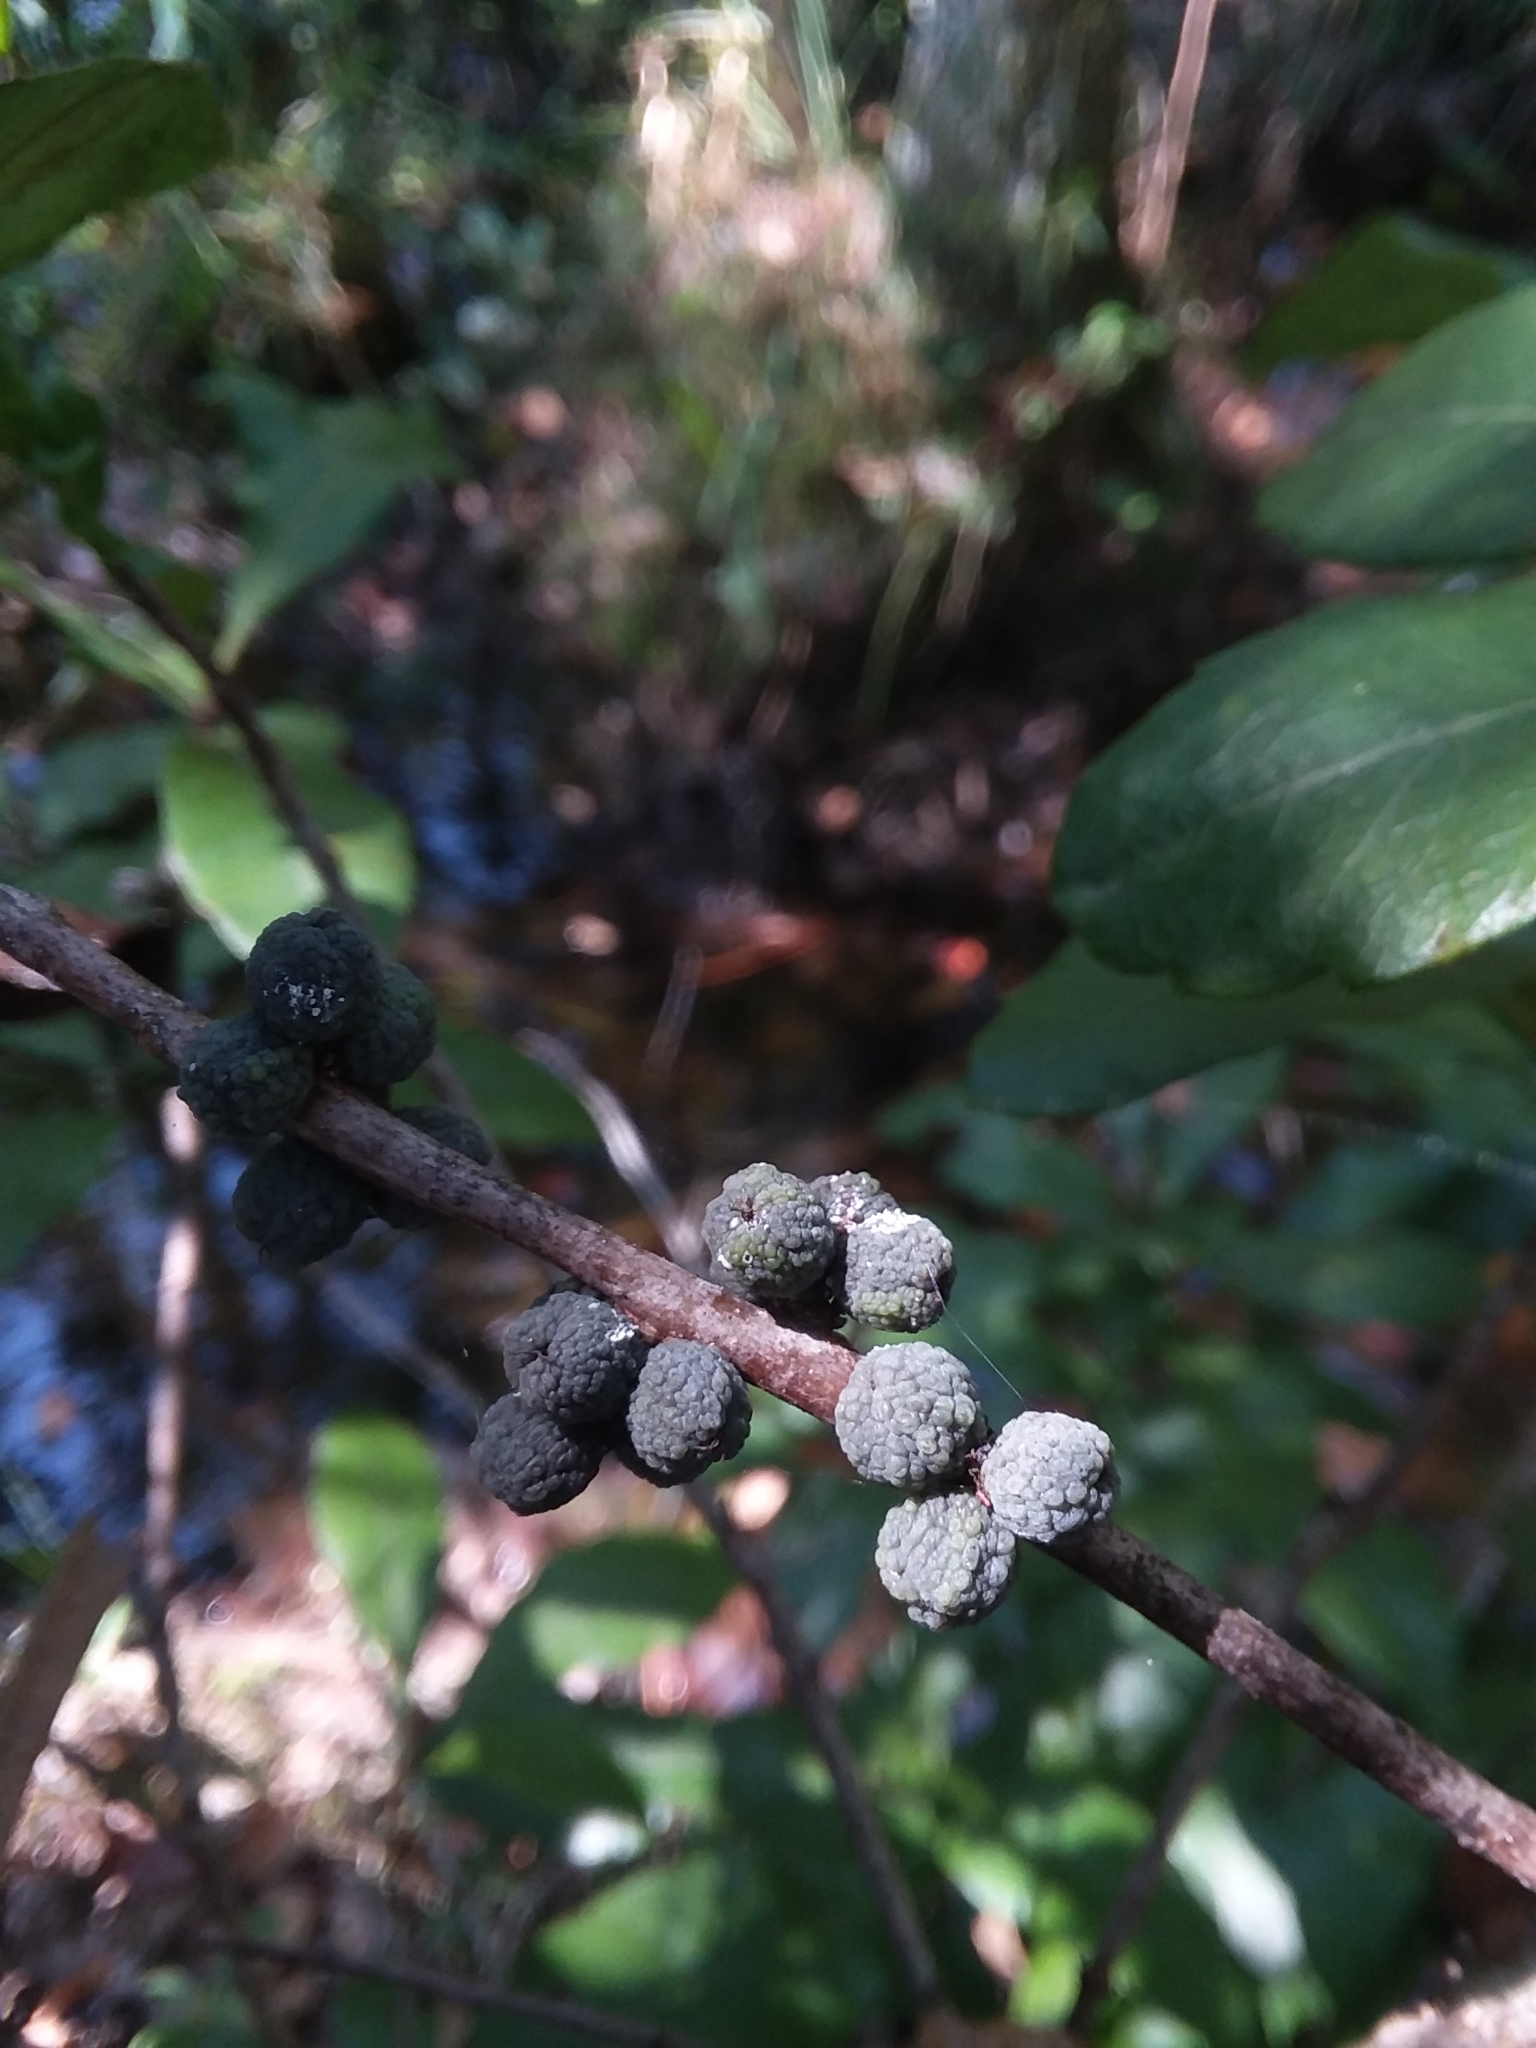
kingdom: Plantae
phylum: Tracheophyta
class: Magnoliopsida
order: Fagales
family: Myricaceae
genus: Morella
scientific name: Morella caroliniensis
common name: Evergreen bayberry
